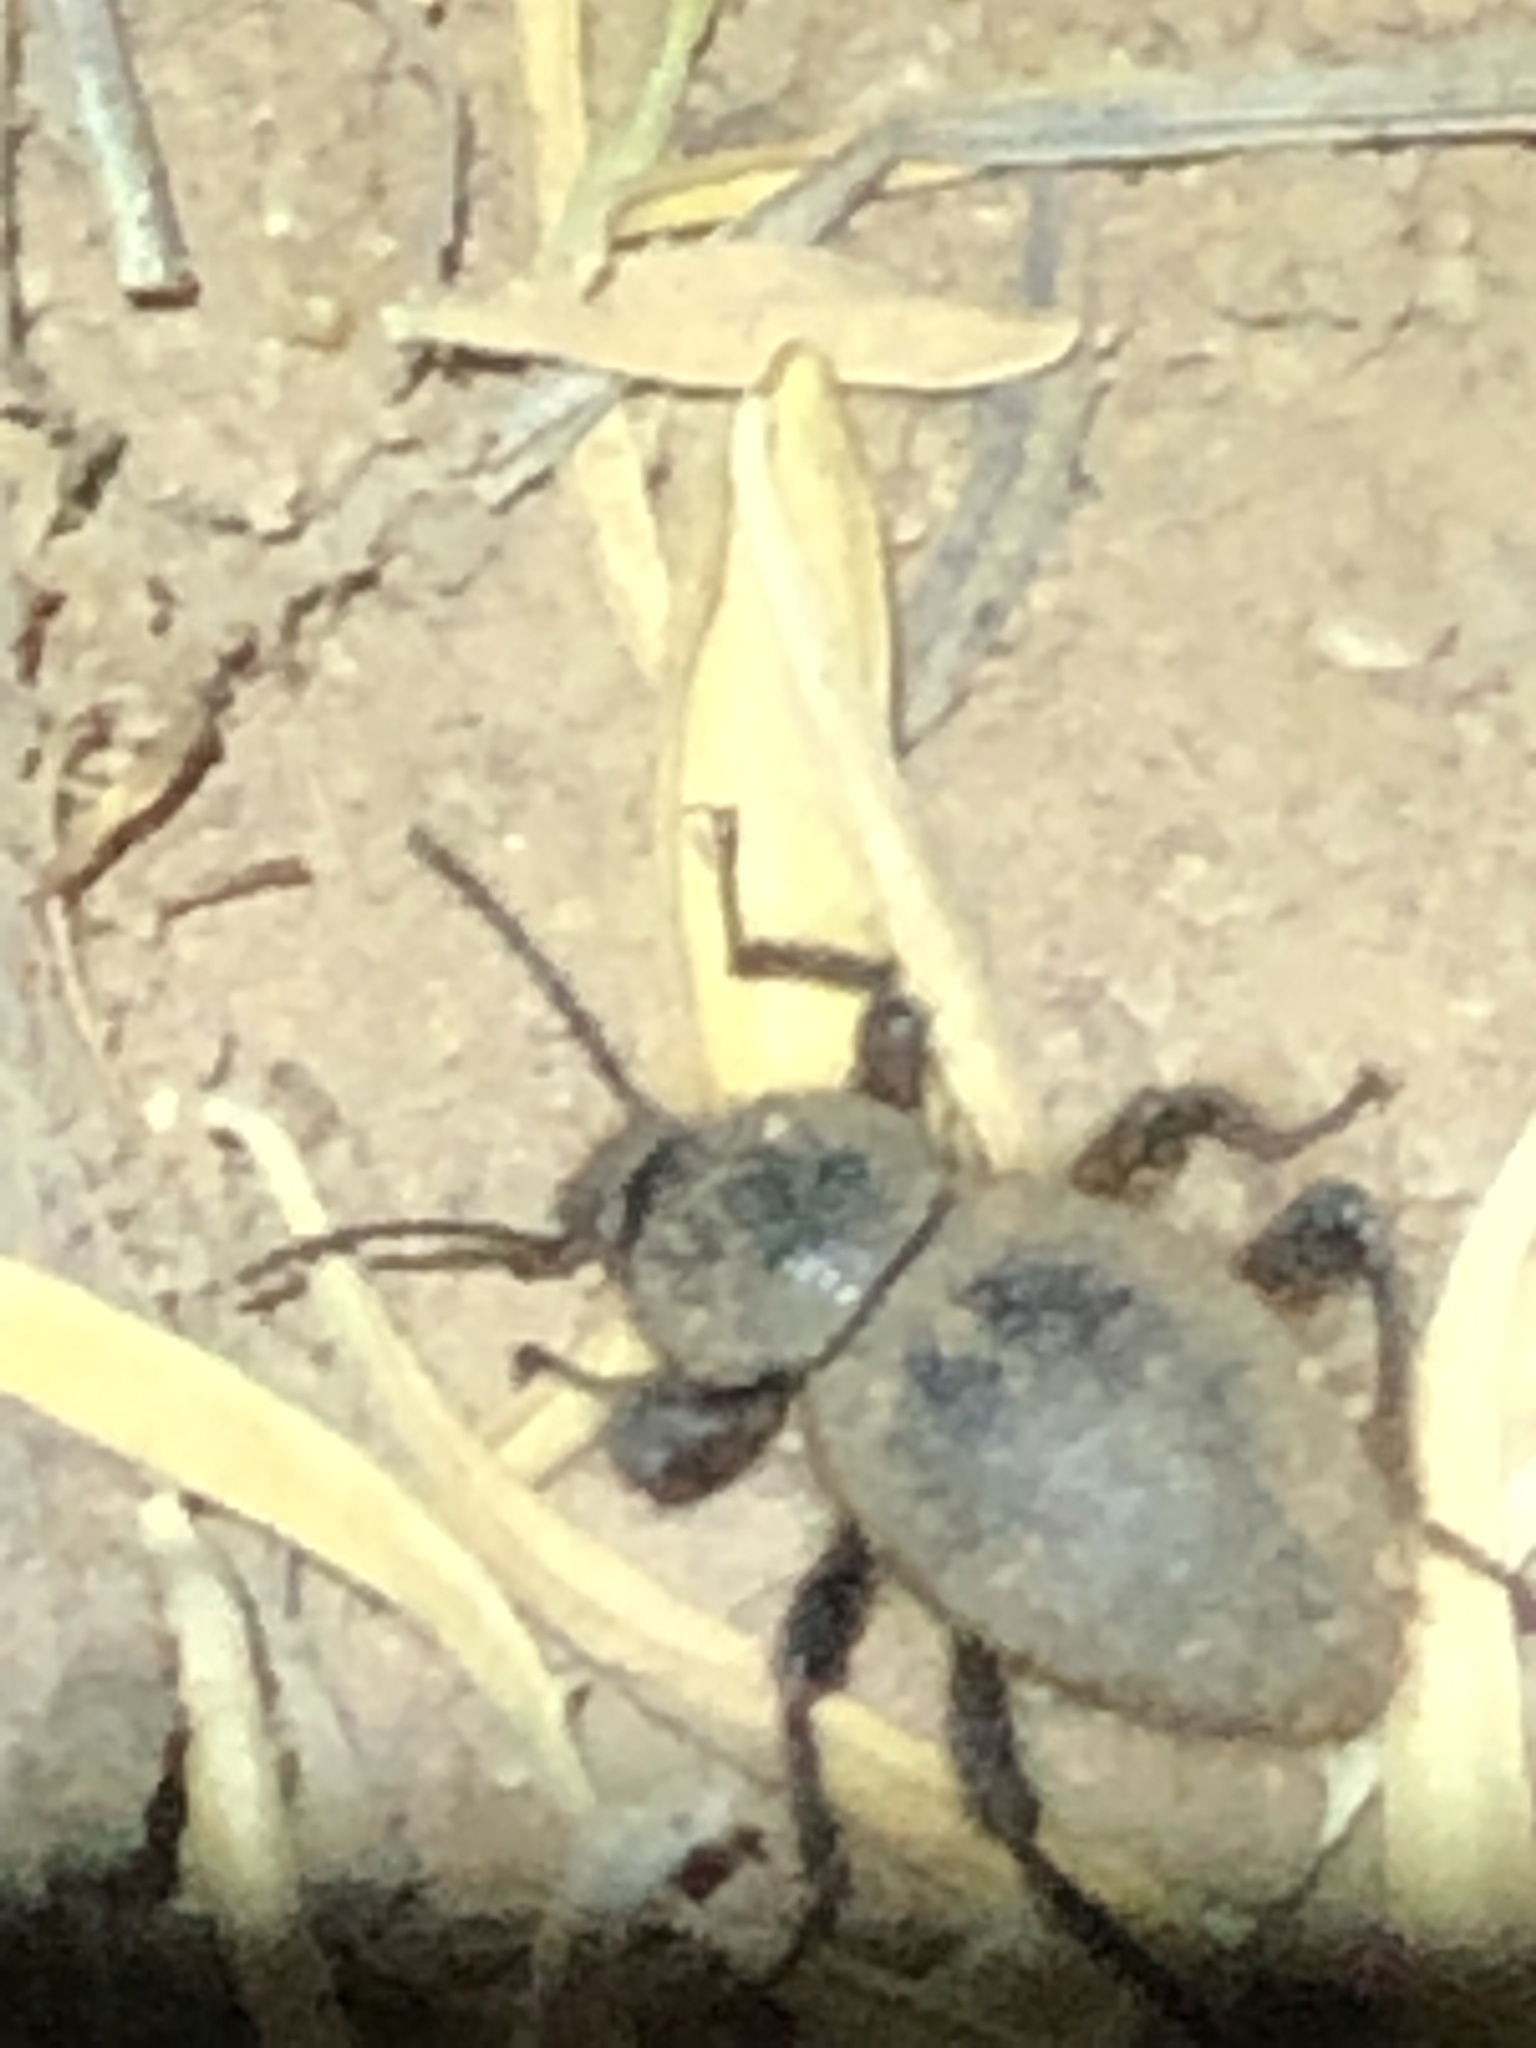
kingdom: Animalia
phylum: Arthropoda
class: Insecta
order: Coleoptera
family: Tenebrionidae
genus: Eleodes
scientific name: Eleodes osculans
